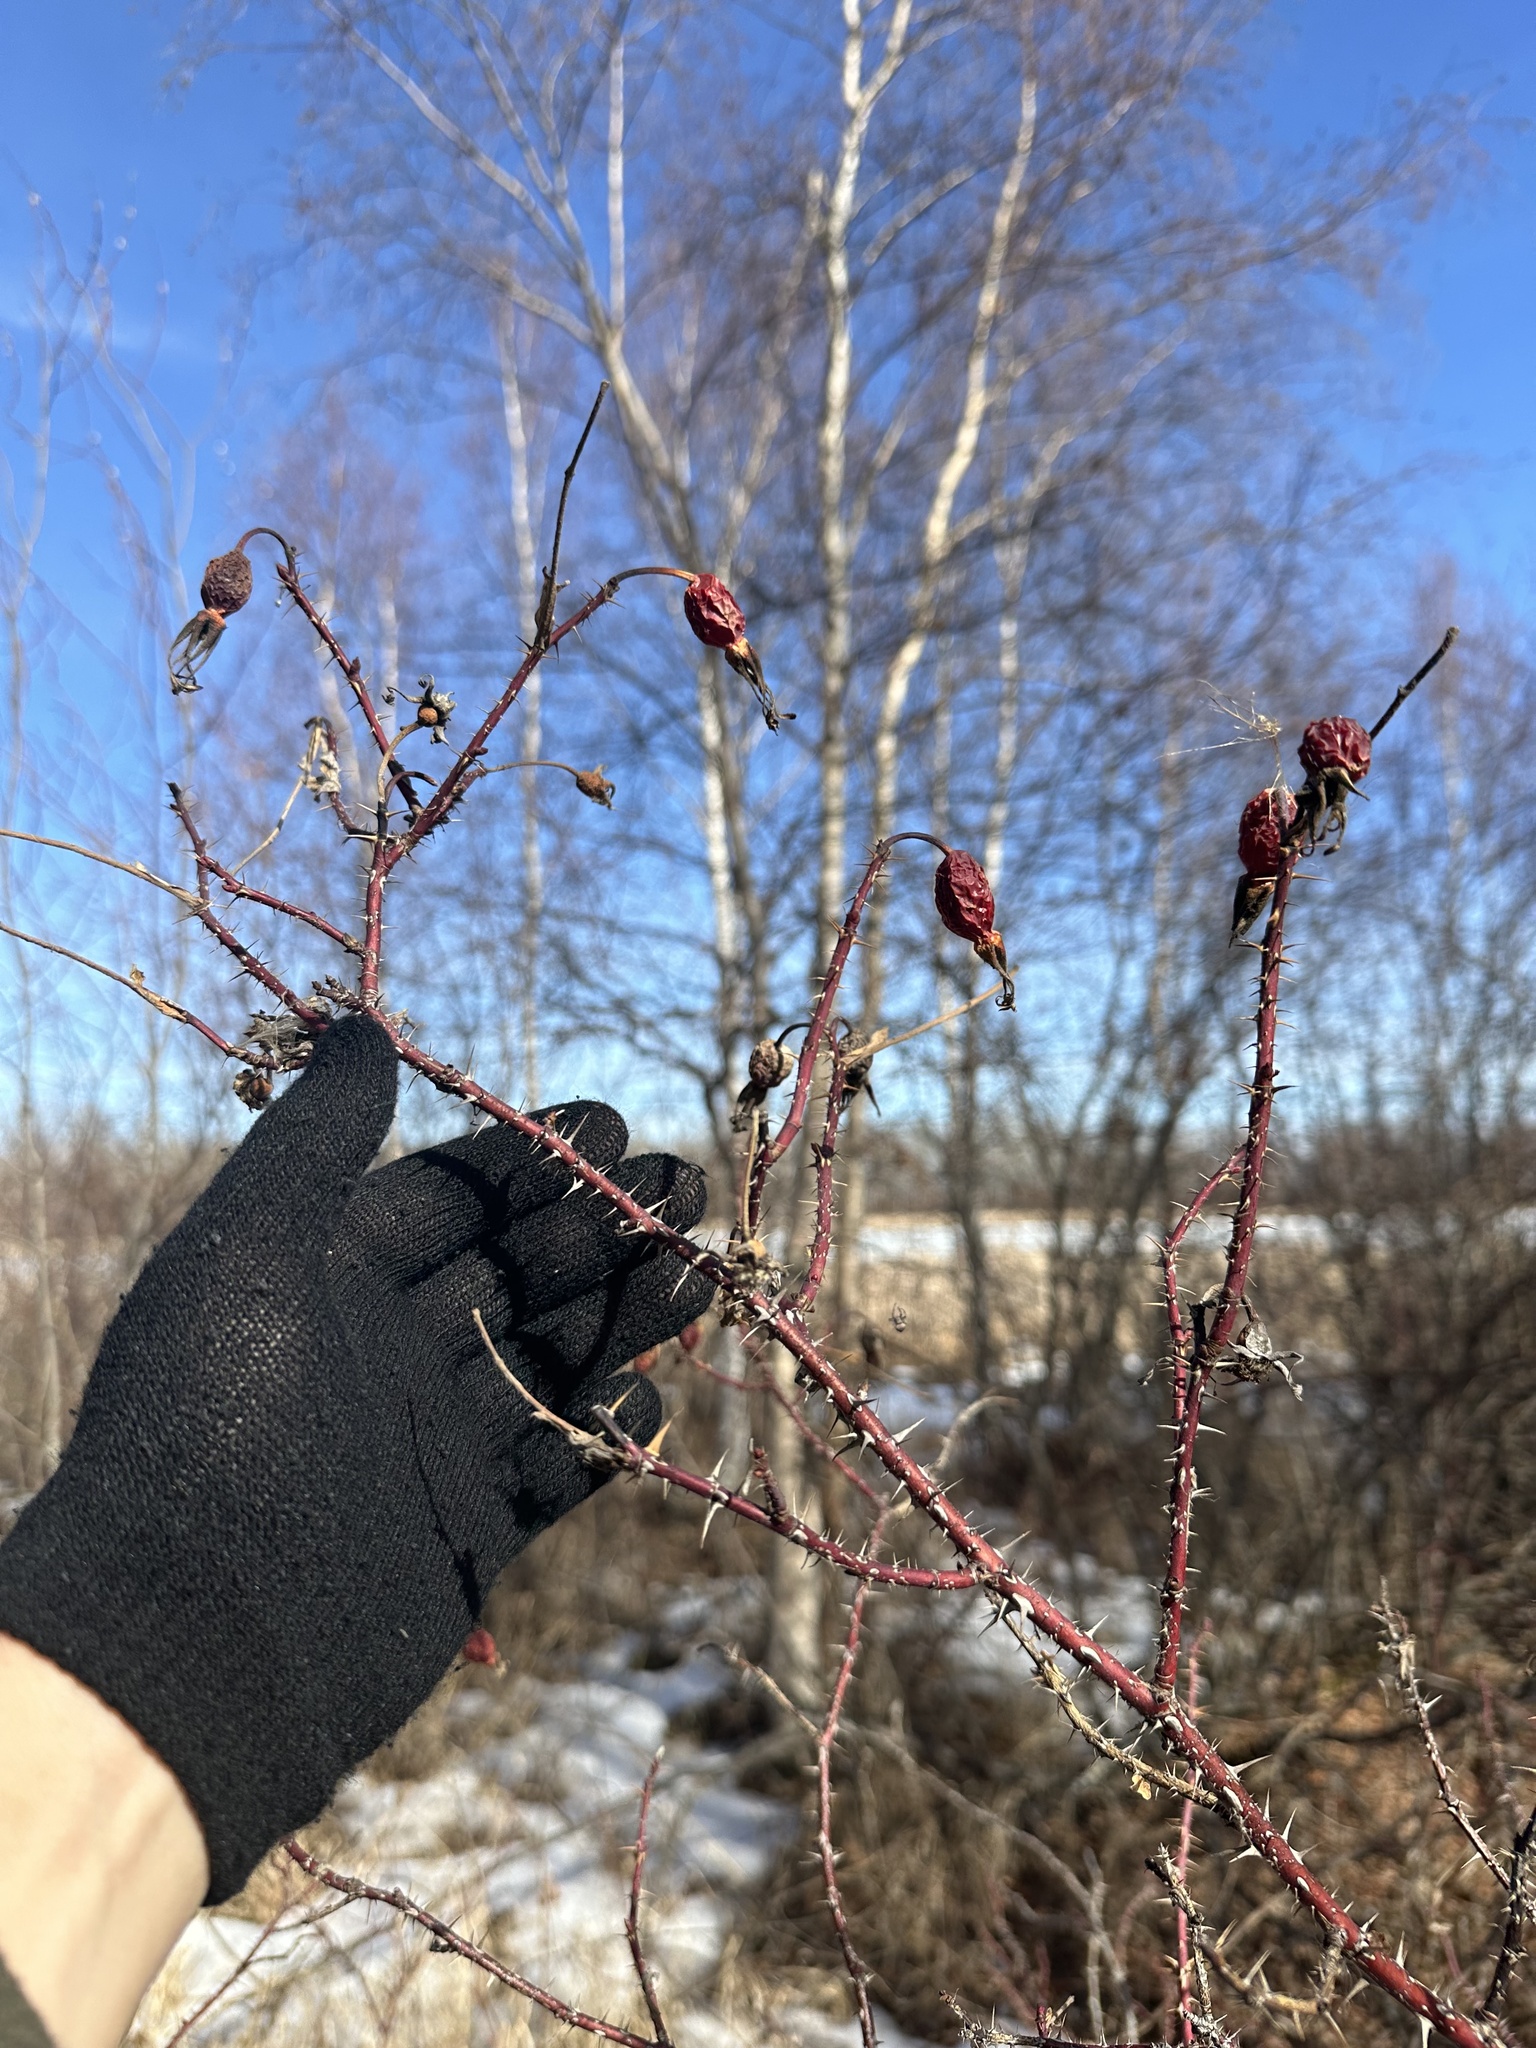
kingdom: Plantae
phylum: Tracheophyta
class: Magnoliopsida
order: Rosales
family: Rosaceae
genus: Rosa
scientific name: Rosa acicularis
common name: Prickly rose
